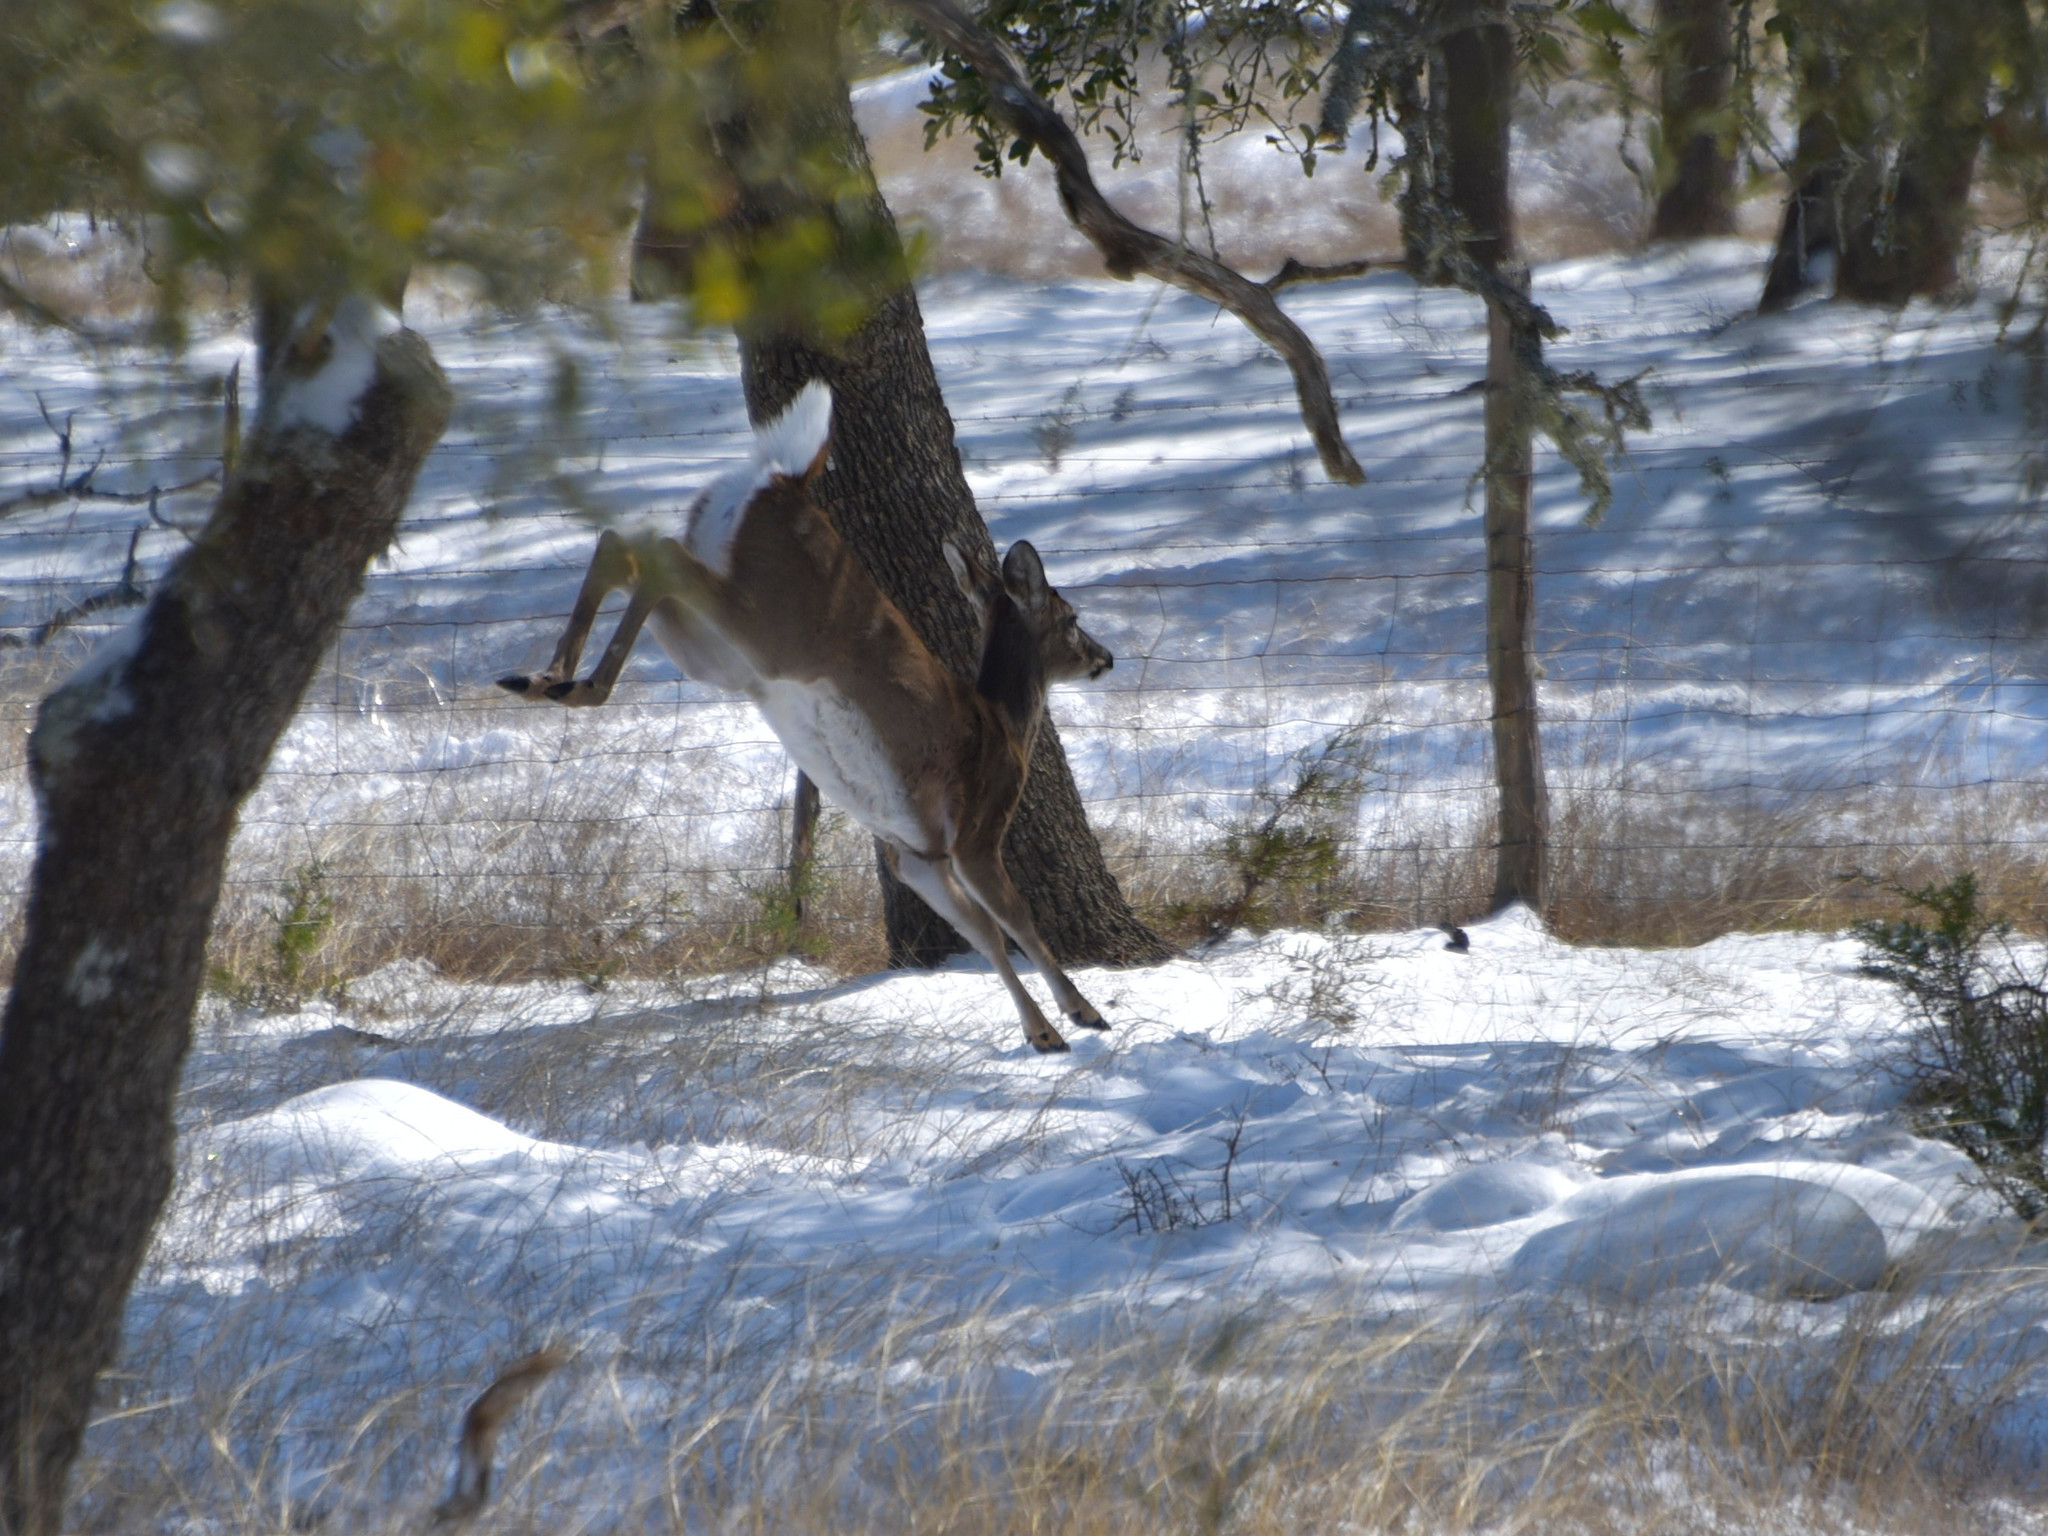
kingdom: Animalia
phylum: Chordata
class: Mammalia
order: Artiodactyla
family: Cervidae
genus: Odocoileus
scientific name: Odocoileus virginianus
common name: White-tailed deer
